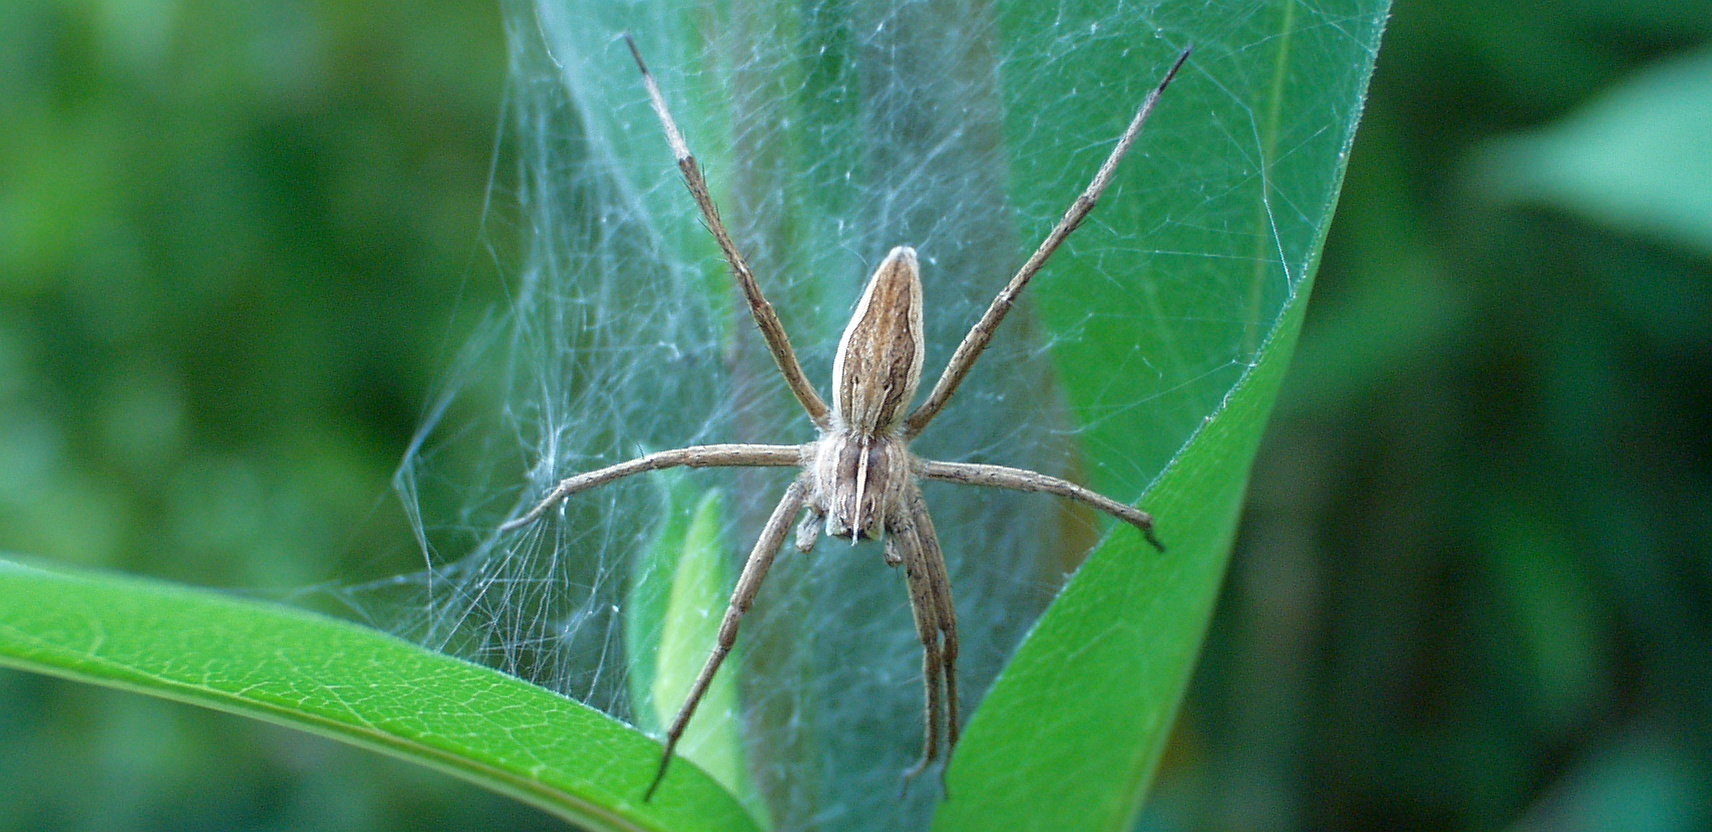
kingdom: Animalia
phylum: Arthropoda
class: Arachnida
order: Araneae
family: Pisauridae
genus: Pisaura
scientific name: Pisaura mirabilis
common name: Tent spider
